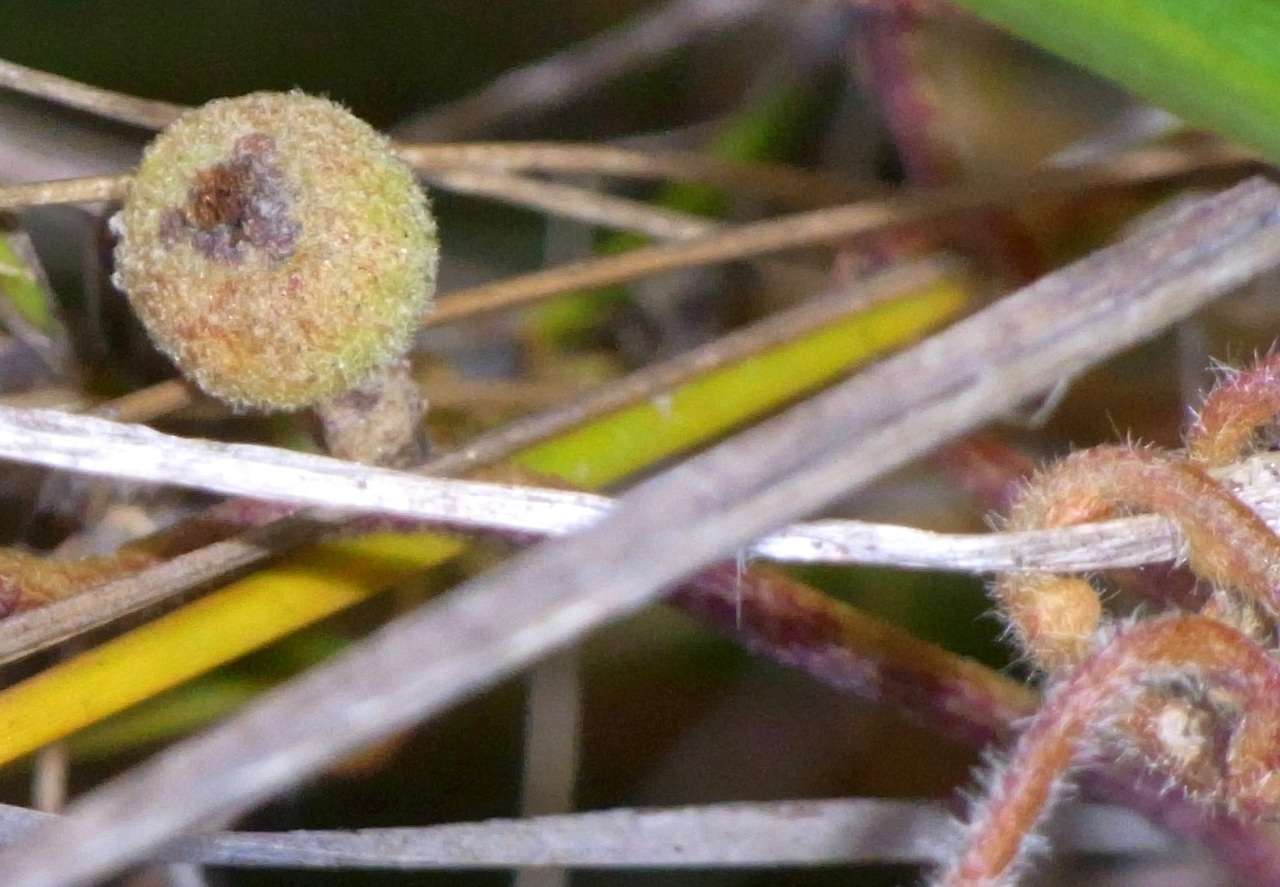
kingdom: Plantae
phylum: Tracheophyta
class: Magnoliopsida
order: Laurales
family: Lauraceae
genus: Cassytha
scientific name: Cassytha pubescens
